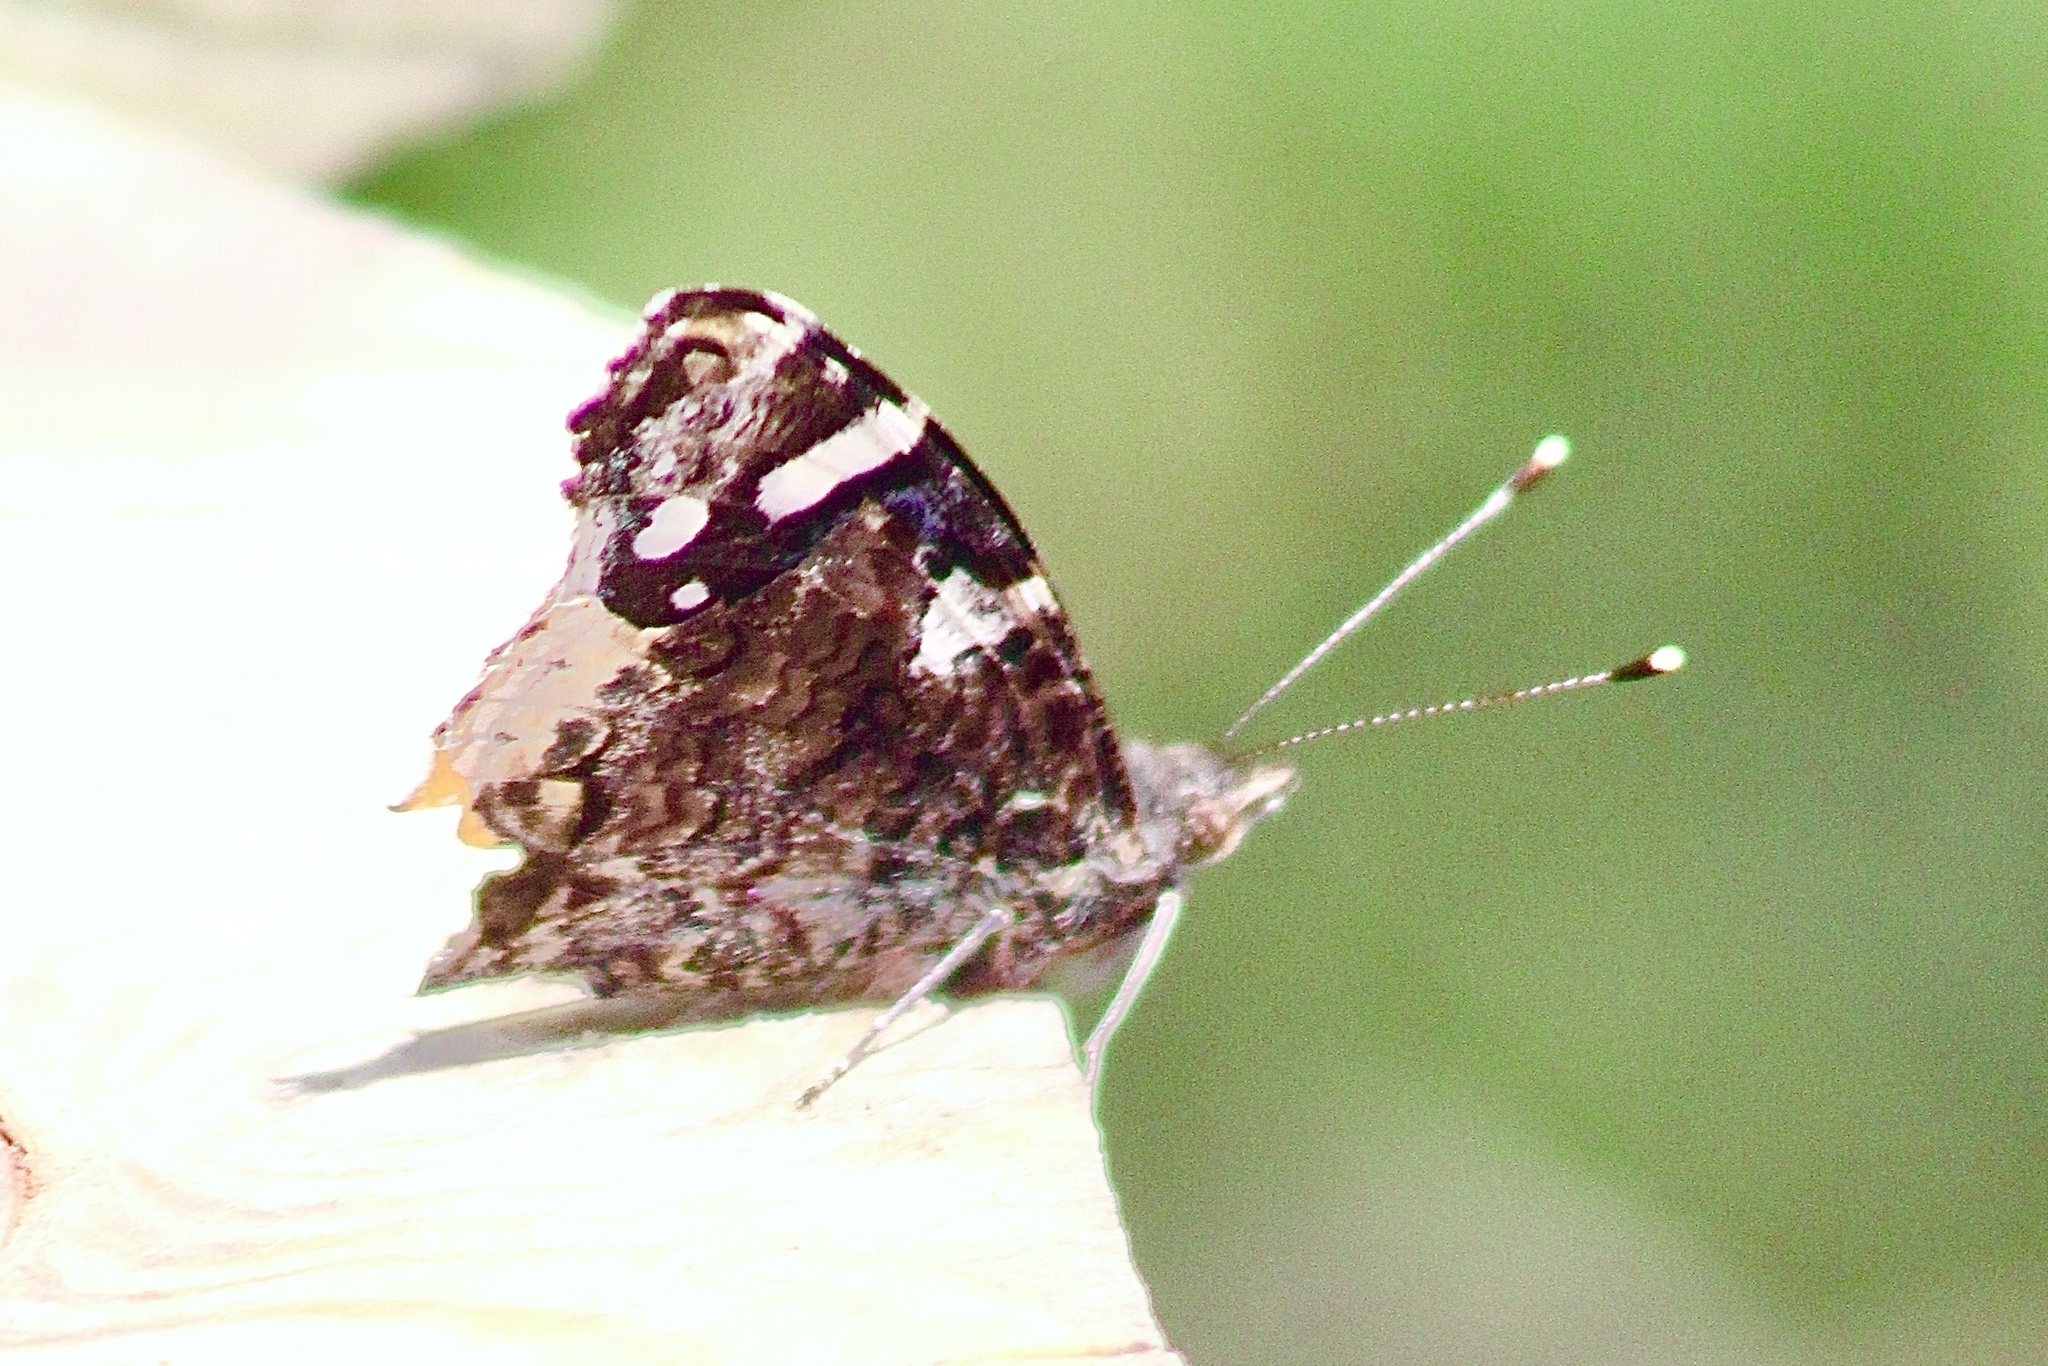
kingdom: Animalia
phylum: Arthropoda
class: Insecta
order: Lepidoptera
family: Nymphalidae
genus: Vanessa
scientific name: Vanessa atalanta
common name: Red admiral
